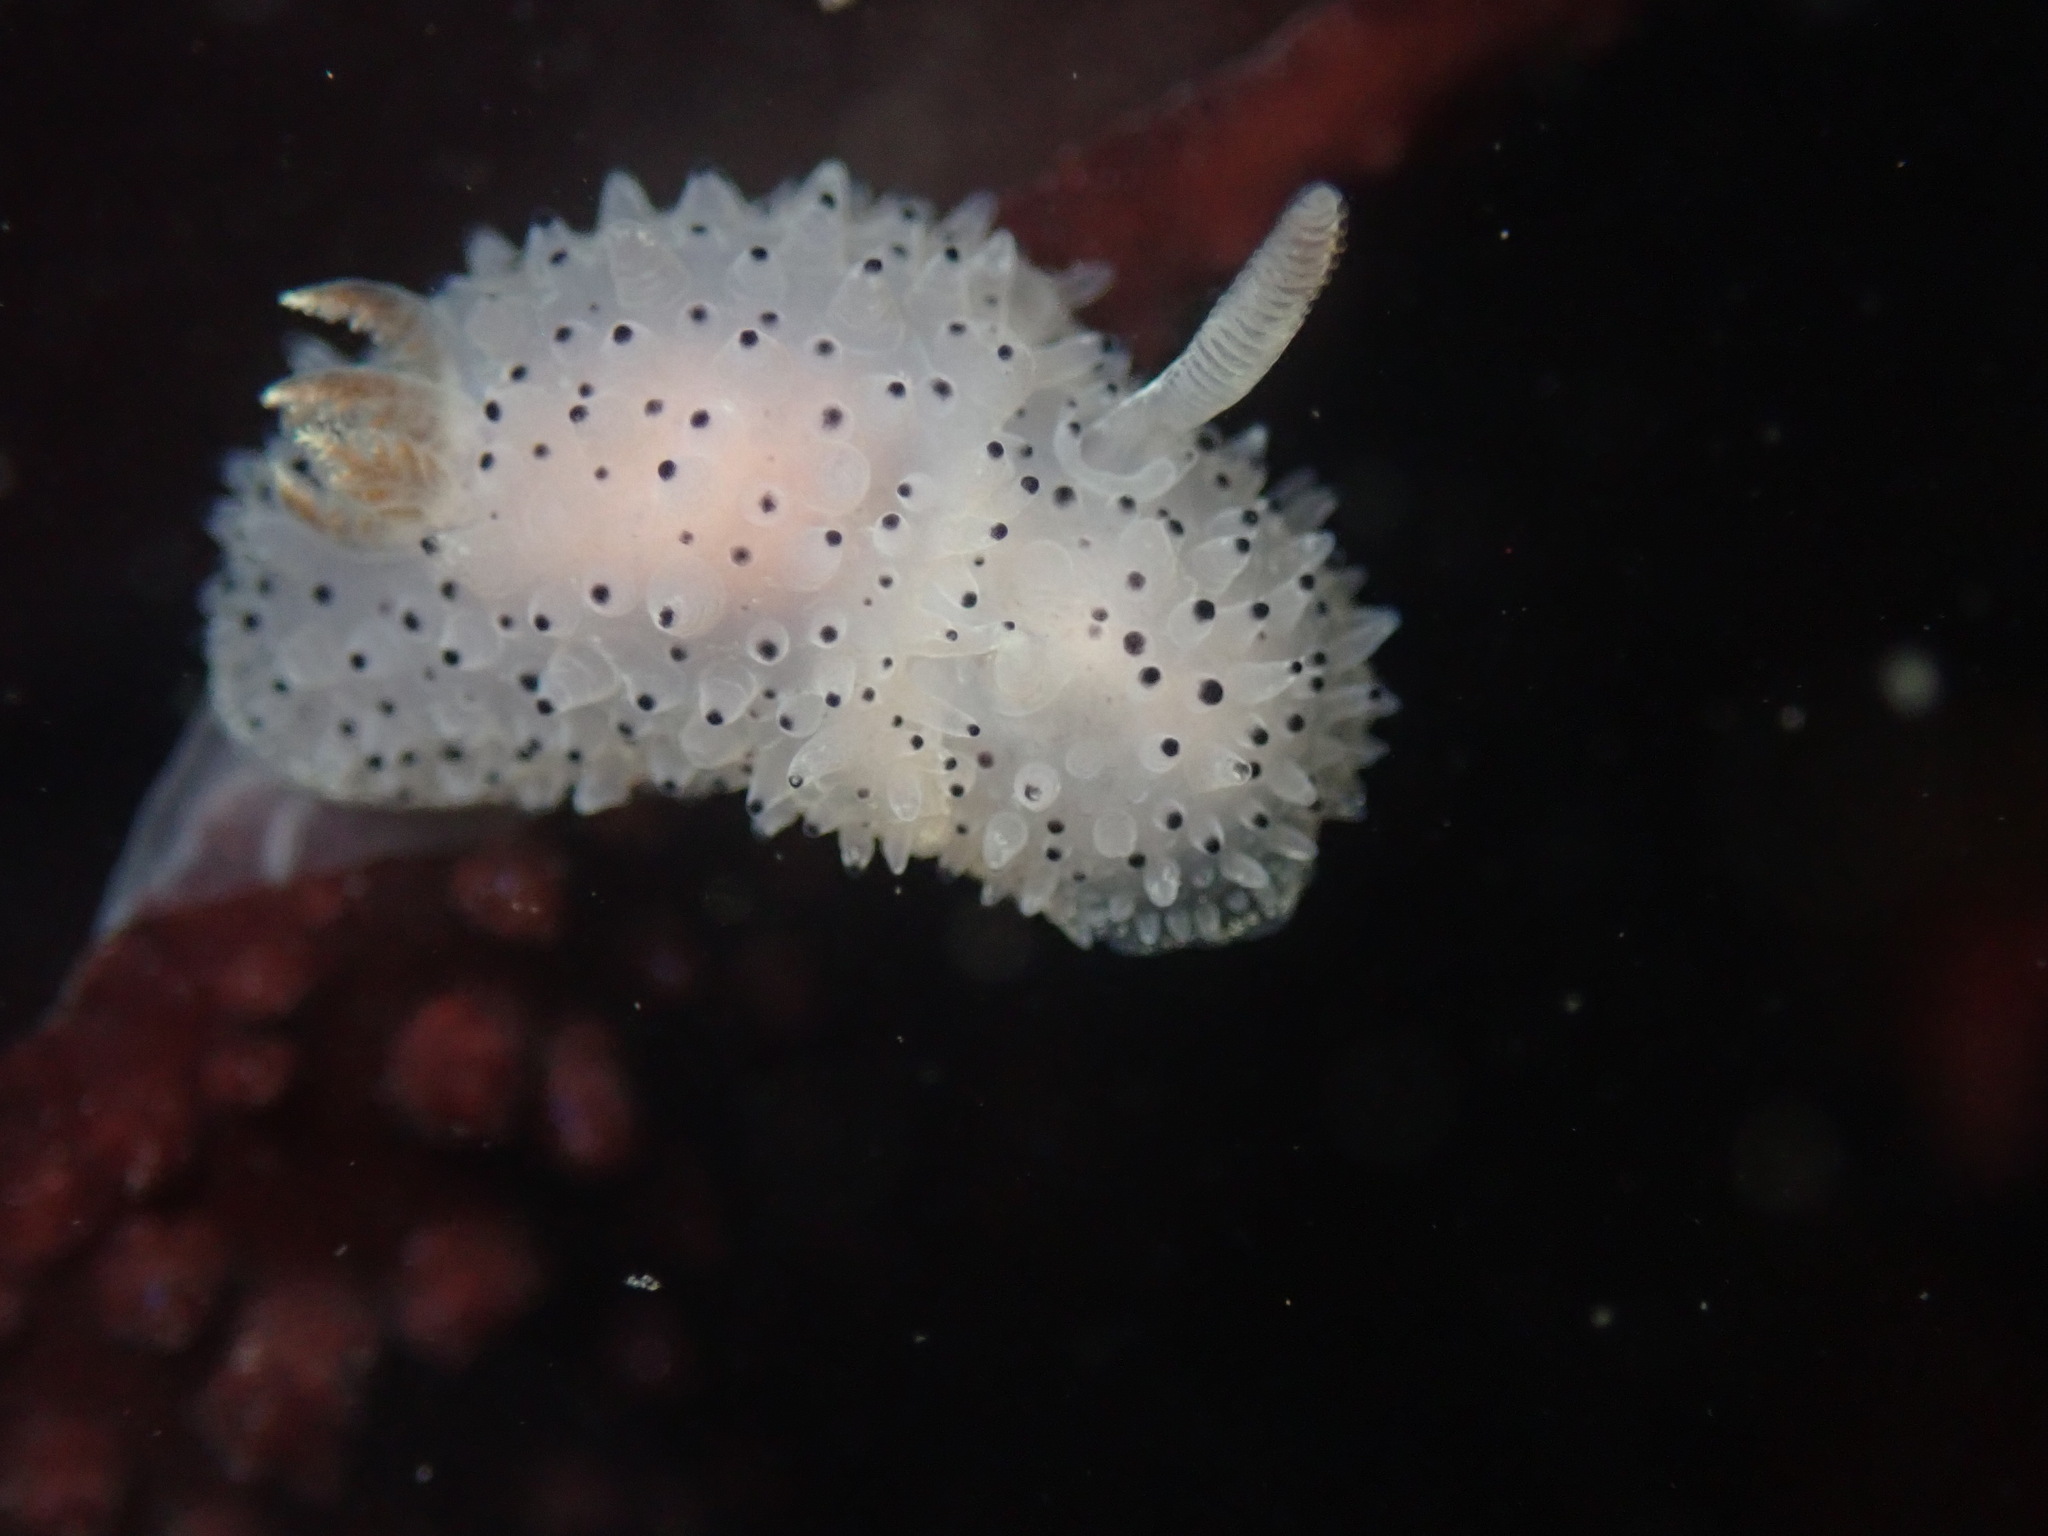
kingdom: Animalia
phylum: Mollusca
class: Gastropoda
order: Nudibranchia
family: Onchidorididae
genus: Acanthodoris
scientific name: Acanthodoris rhodoceras
